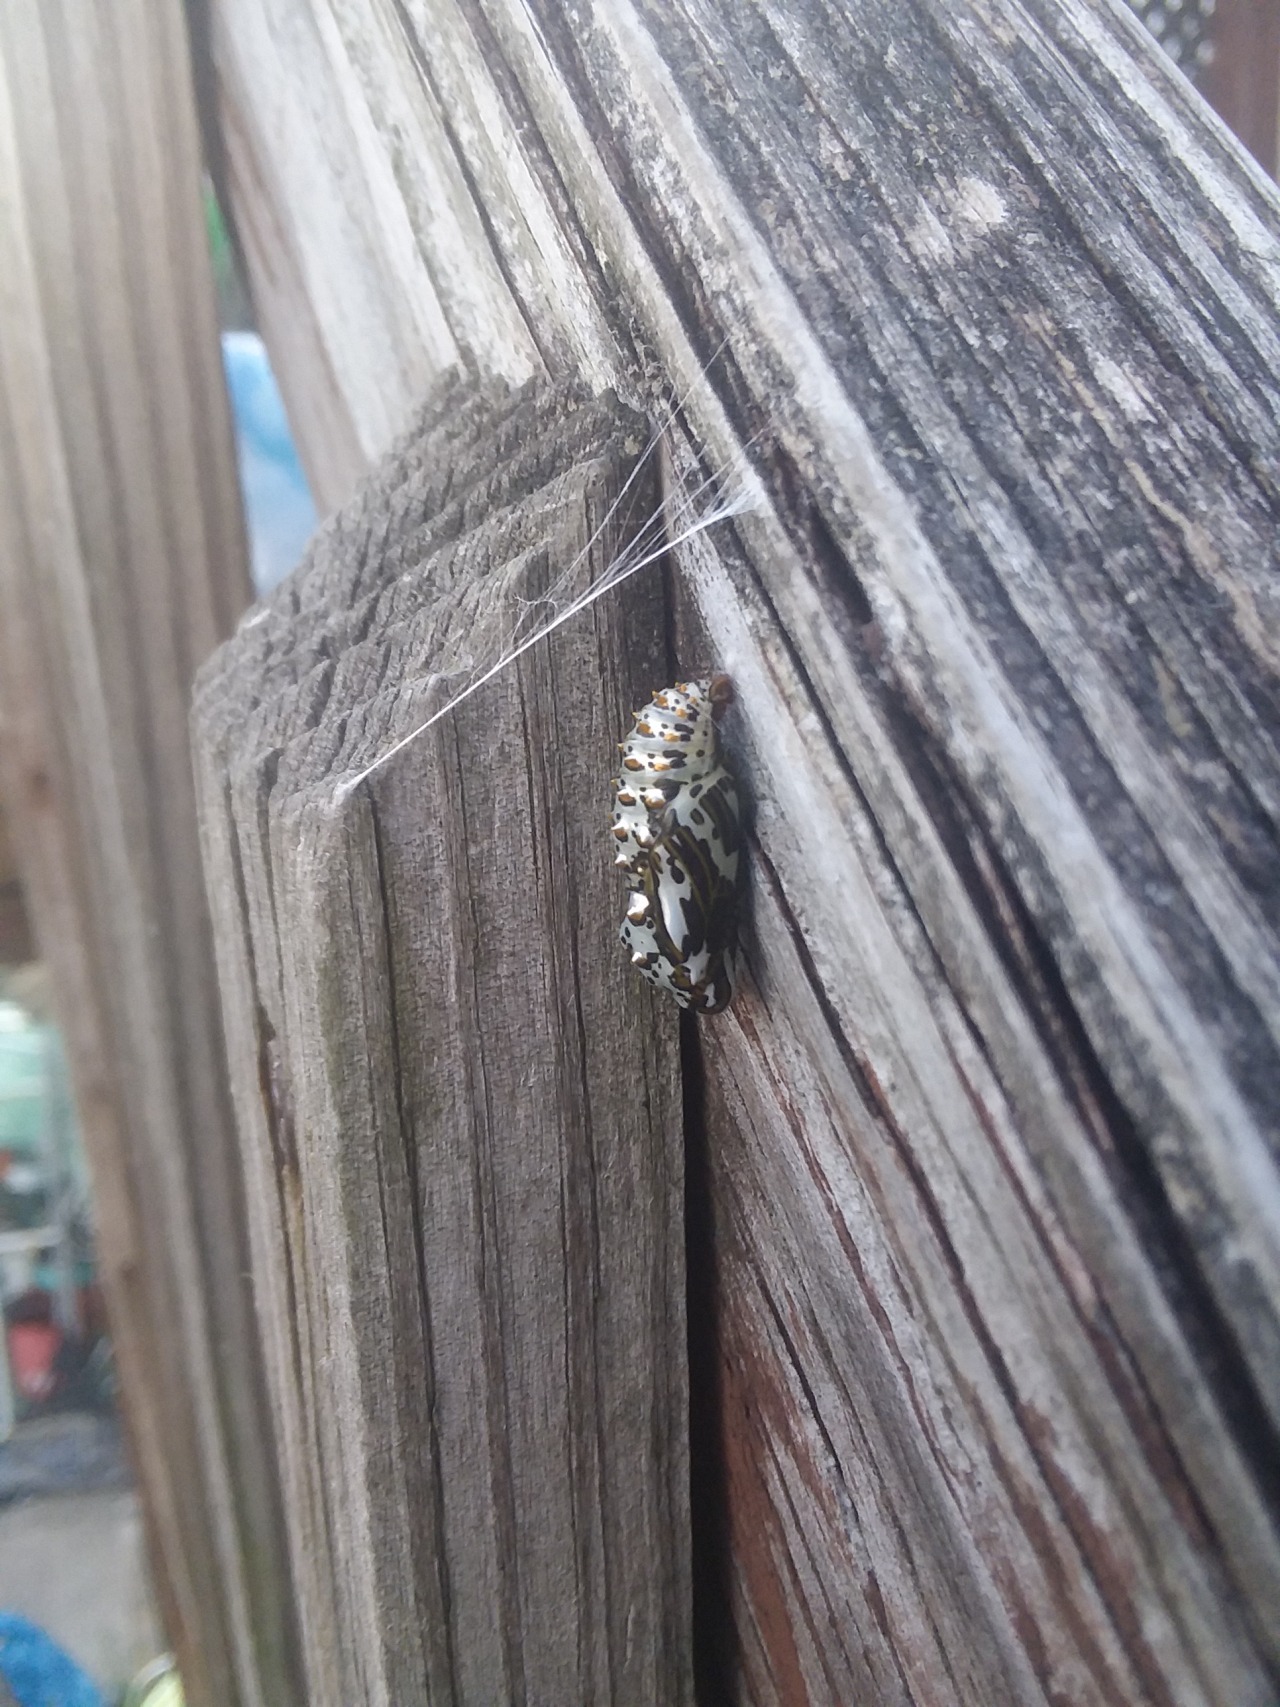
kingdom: Animalia
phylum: Arthropoda
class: Insecta
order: Lepidoptera
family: Nymphalidae
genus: Euptoieta
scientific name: Euptoieta claudia
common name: Variegated fritillary
